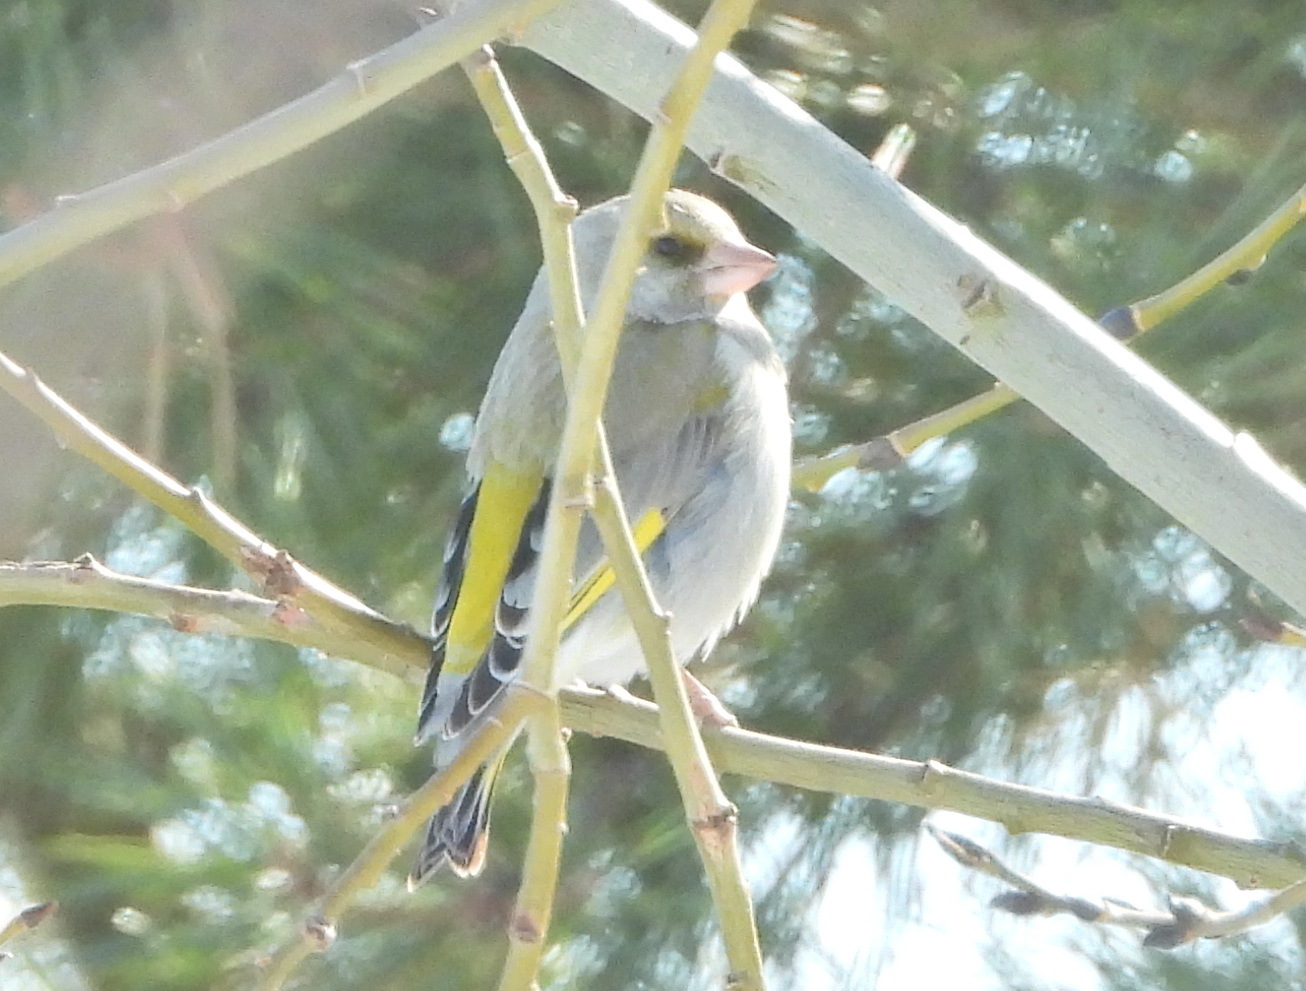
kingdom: Plantae
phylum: Tracheophyta
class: Liliopsida
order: Poales
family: Poaceae
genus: Chloris
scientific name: Chloris chloris
